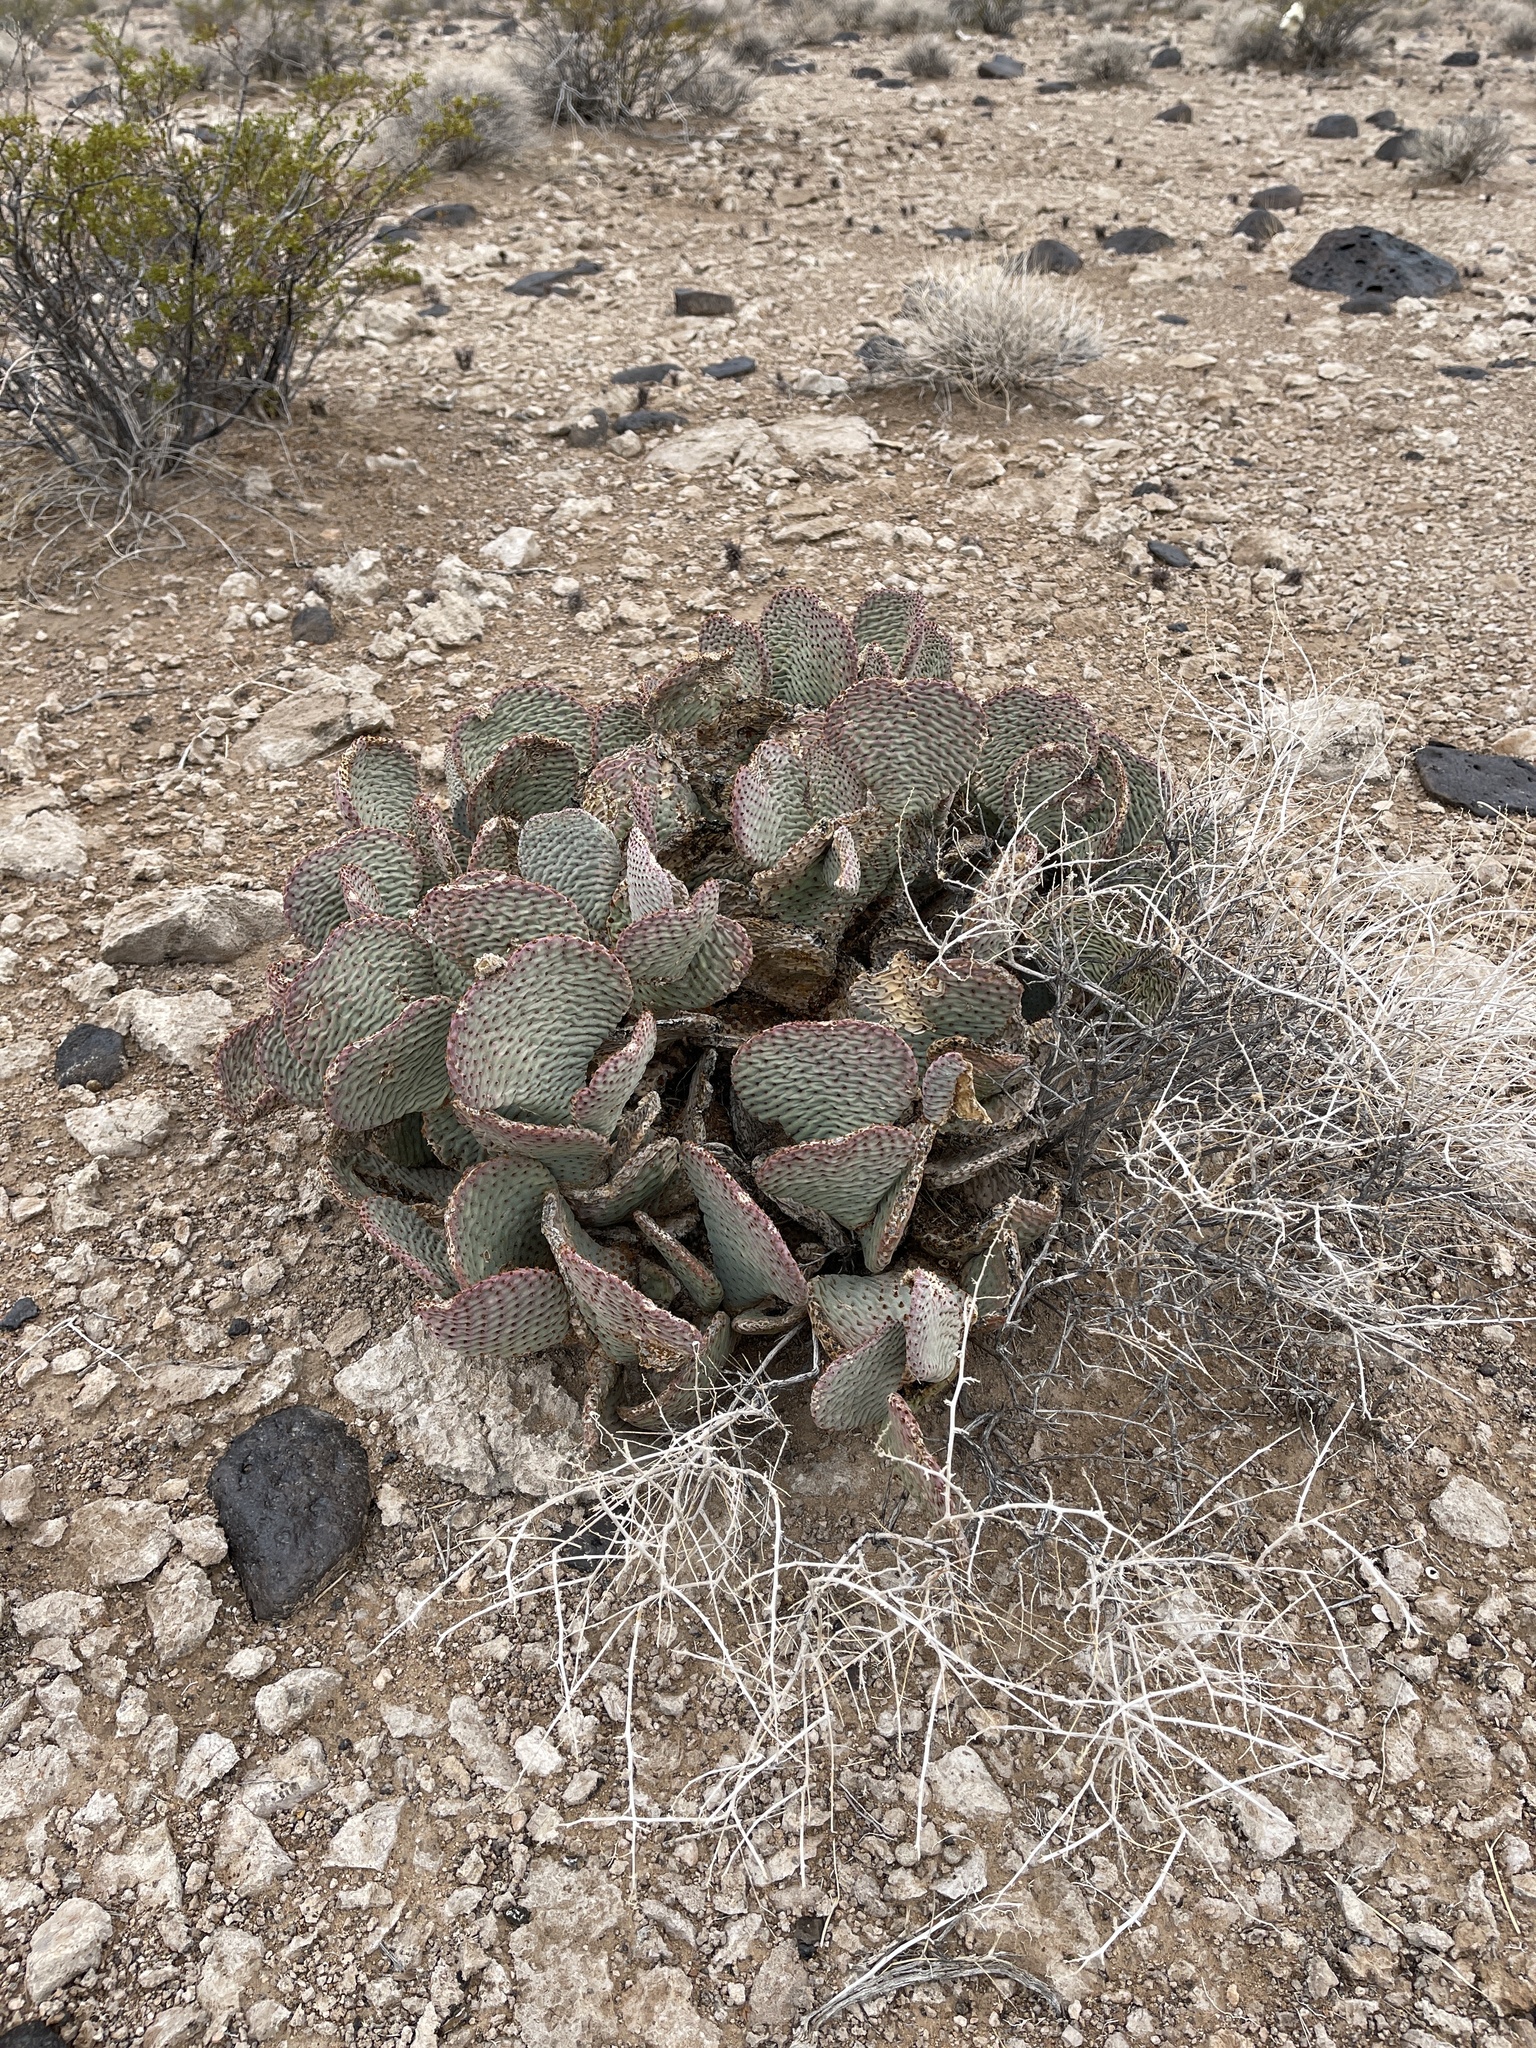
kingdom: Plantae
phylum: Tracheophyta
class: Magnoliopsida
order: Caryophyllales
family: Cactaceae
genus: Opuntia
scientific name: Opuntia basilaris
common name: Beavertail prickly-pear
